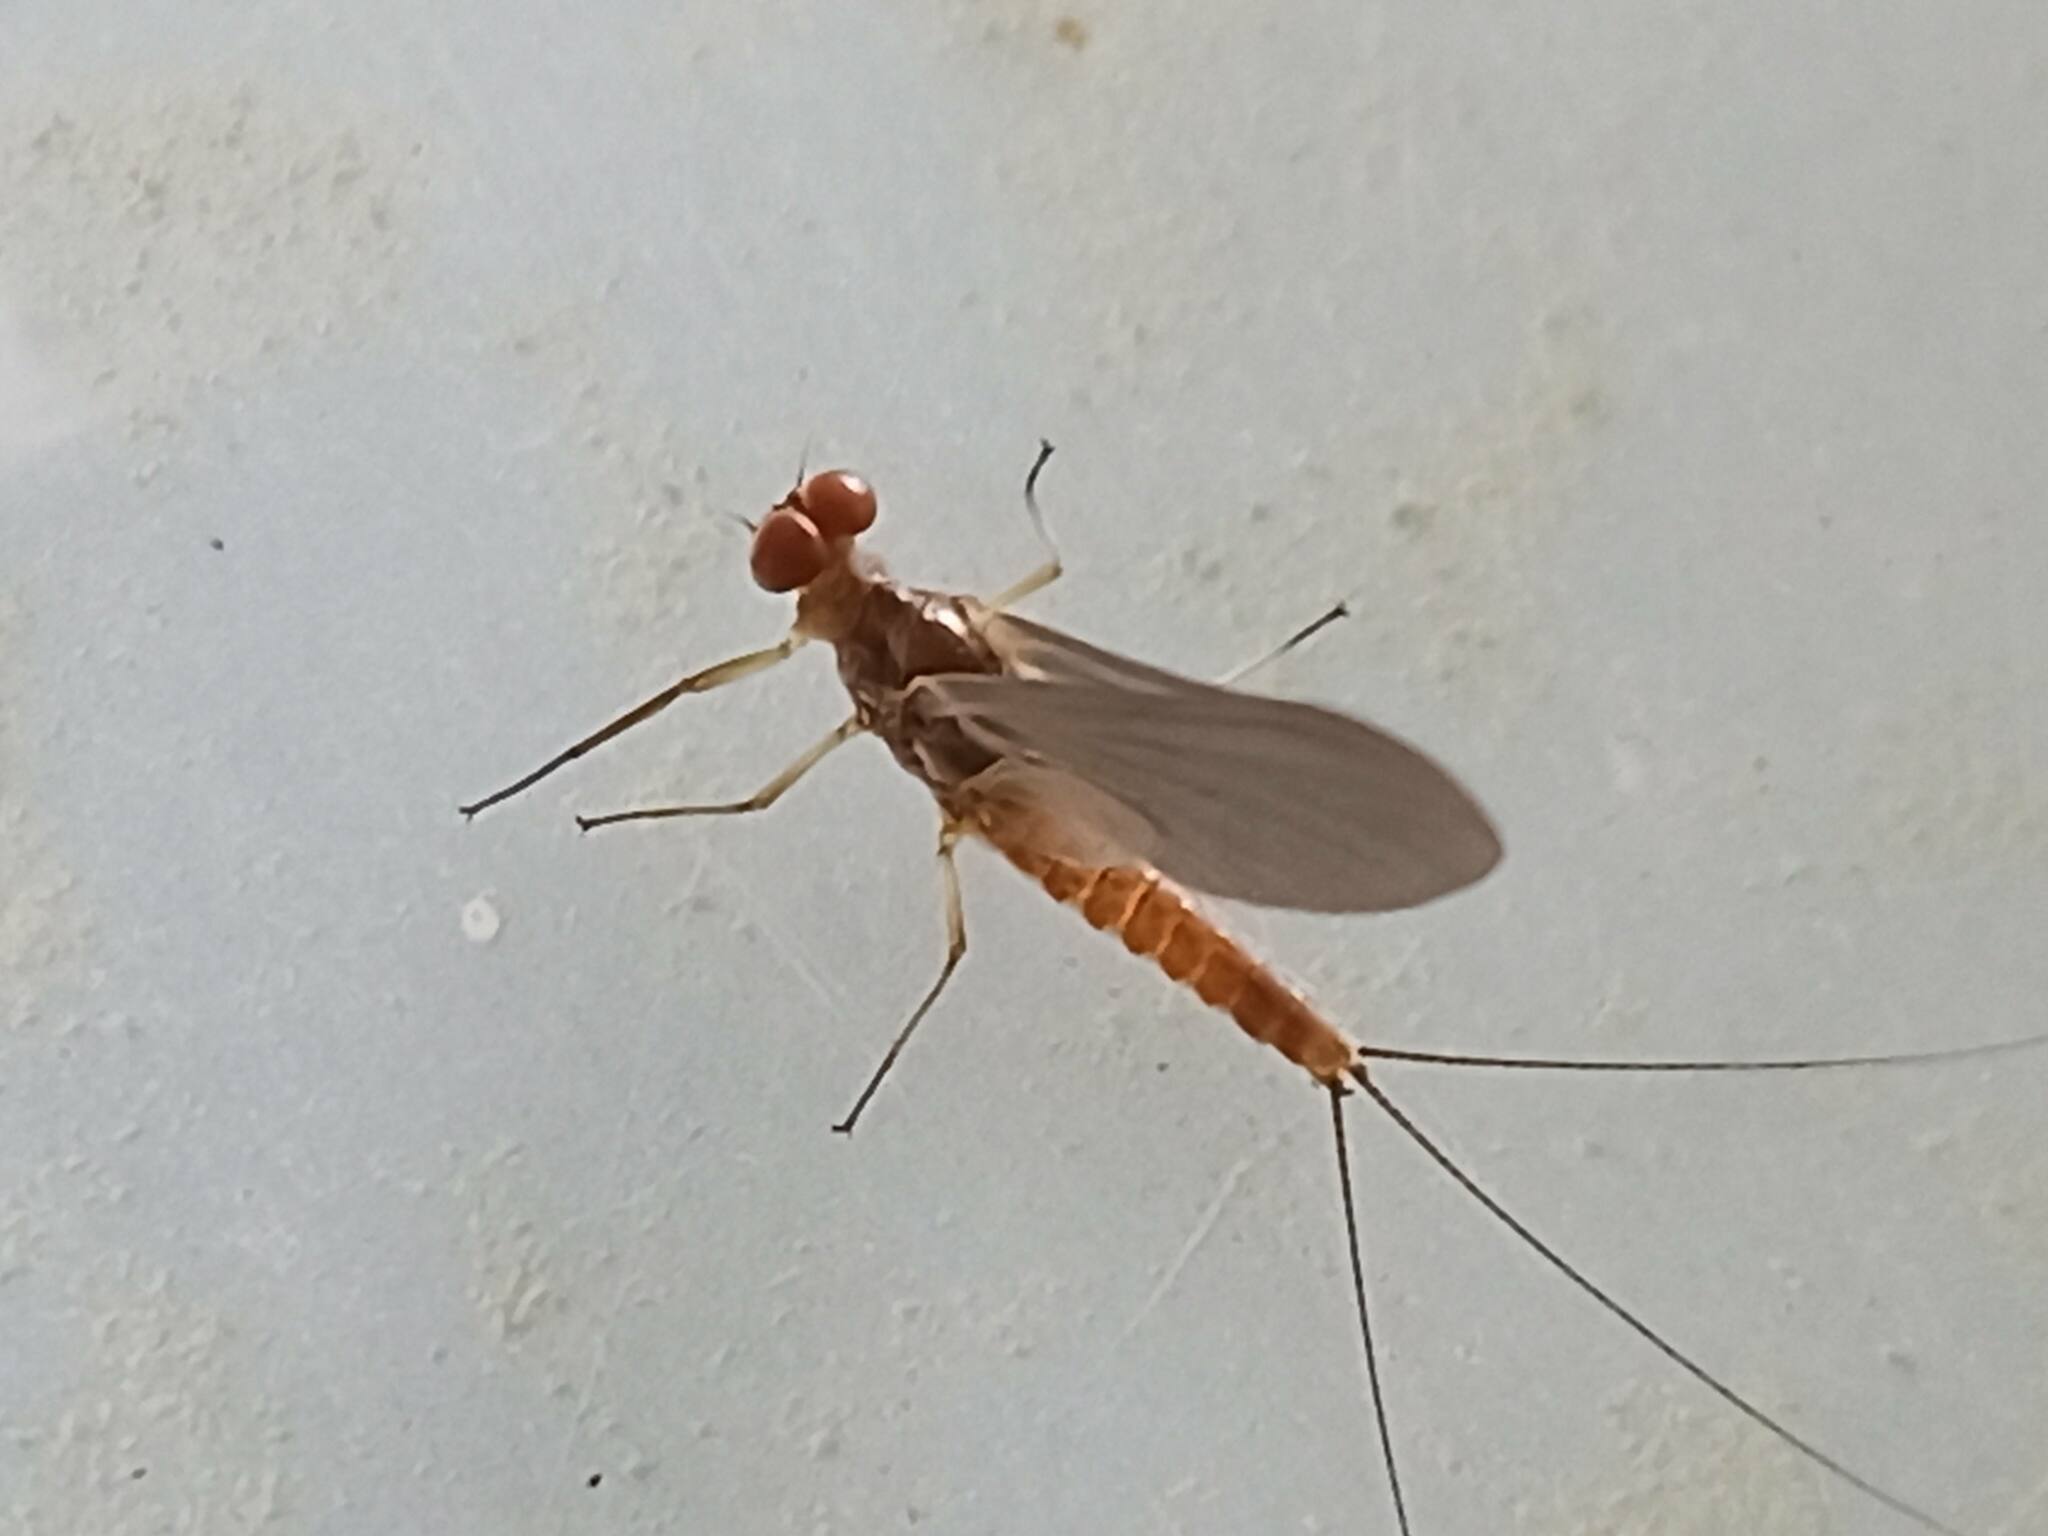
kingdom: Animalia
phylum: Arthropoda
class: Insecta
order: Ephemeroptera
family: Ephemerellidae
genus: Serratella
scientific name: Serratella ignita
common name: Blue-winged olive
